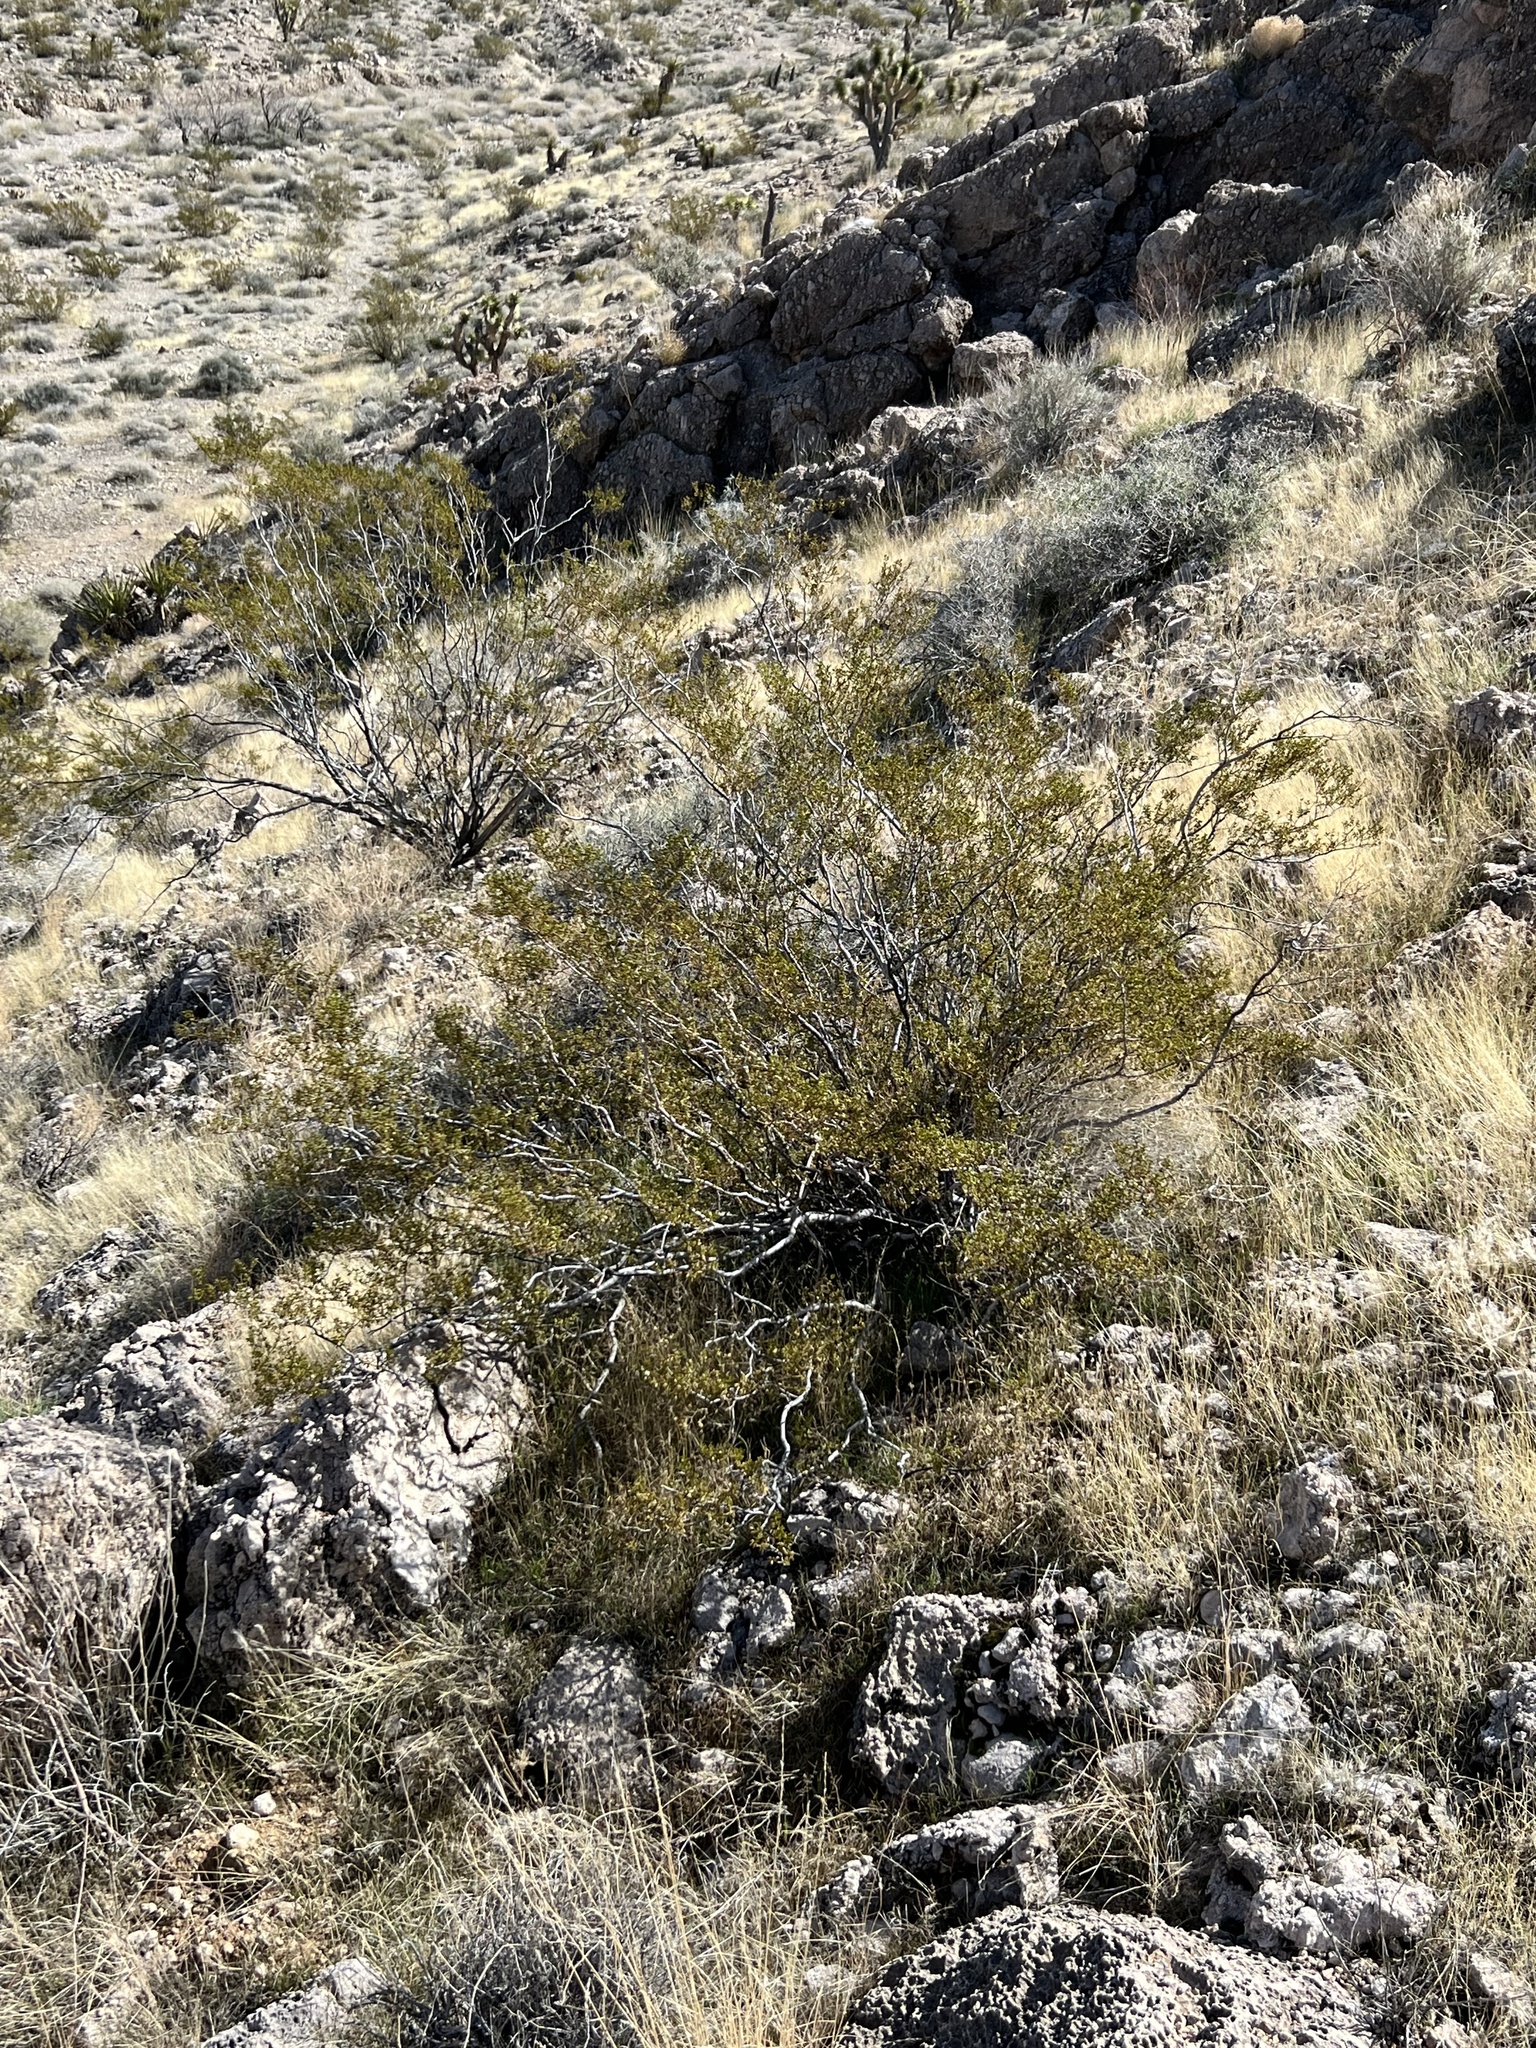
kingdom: Plantae
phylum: Tracheophyta
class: Magnoliopsida
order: Zygophyllales
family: Zygophyllaceae
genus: Larrea
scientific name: Larrea tridentata
